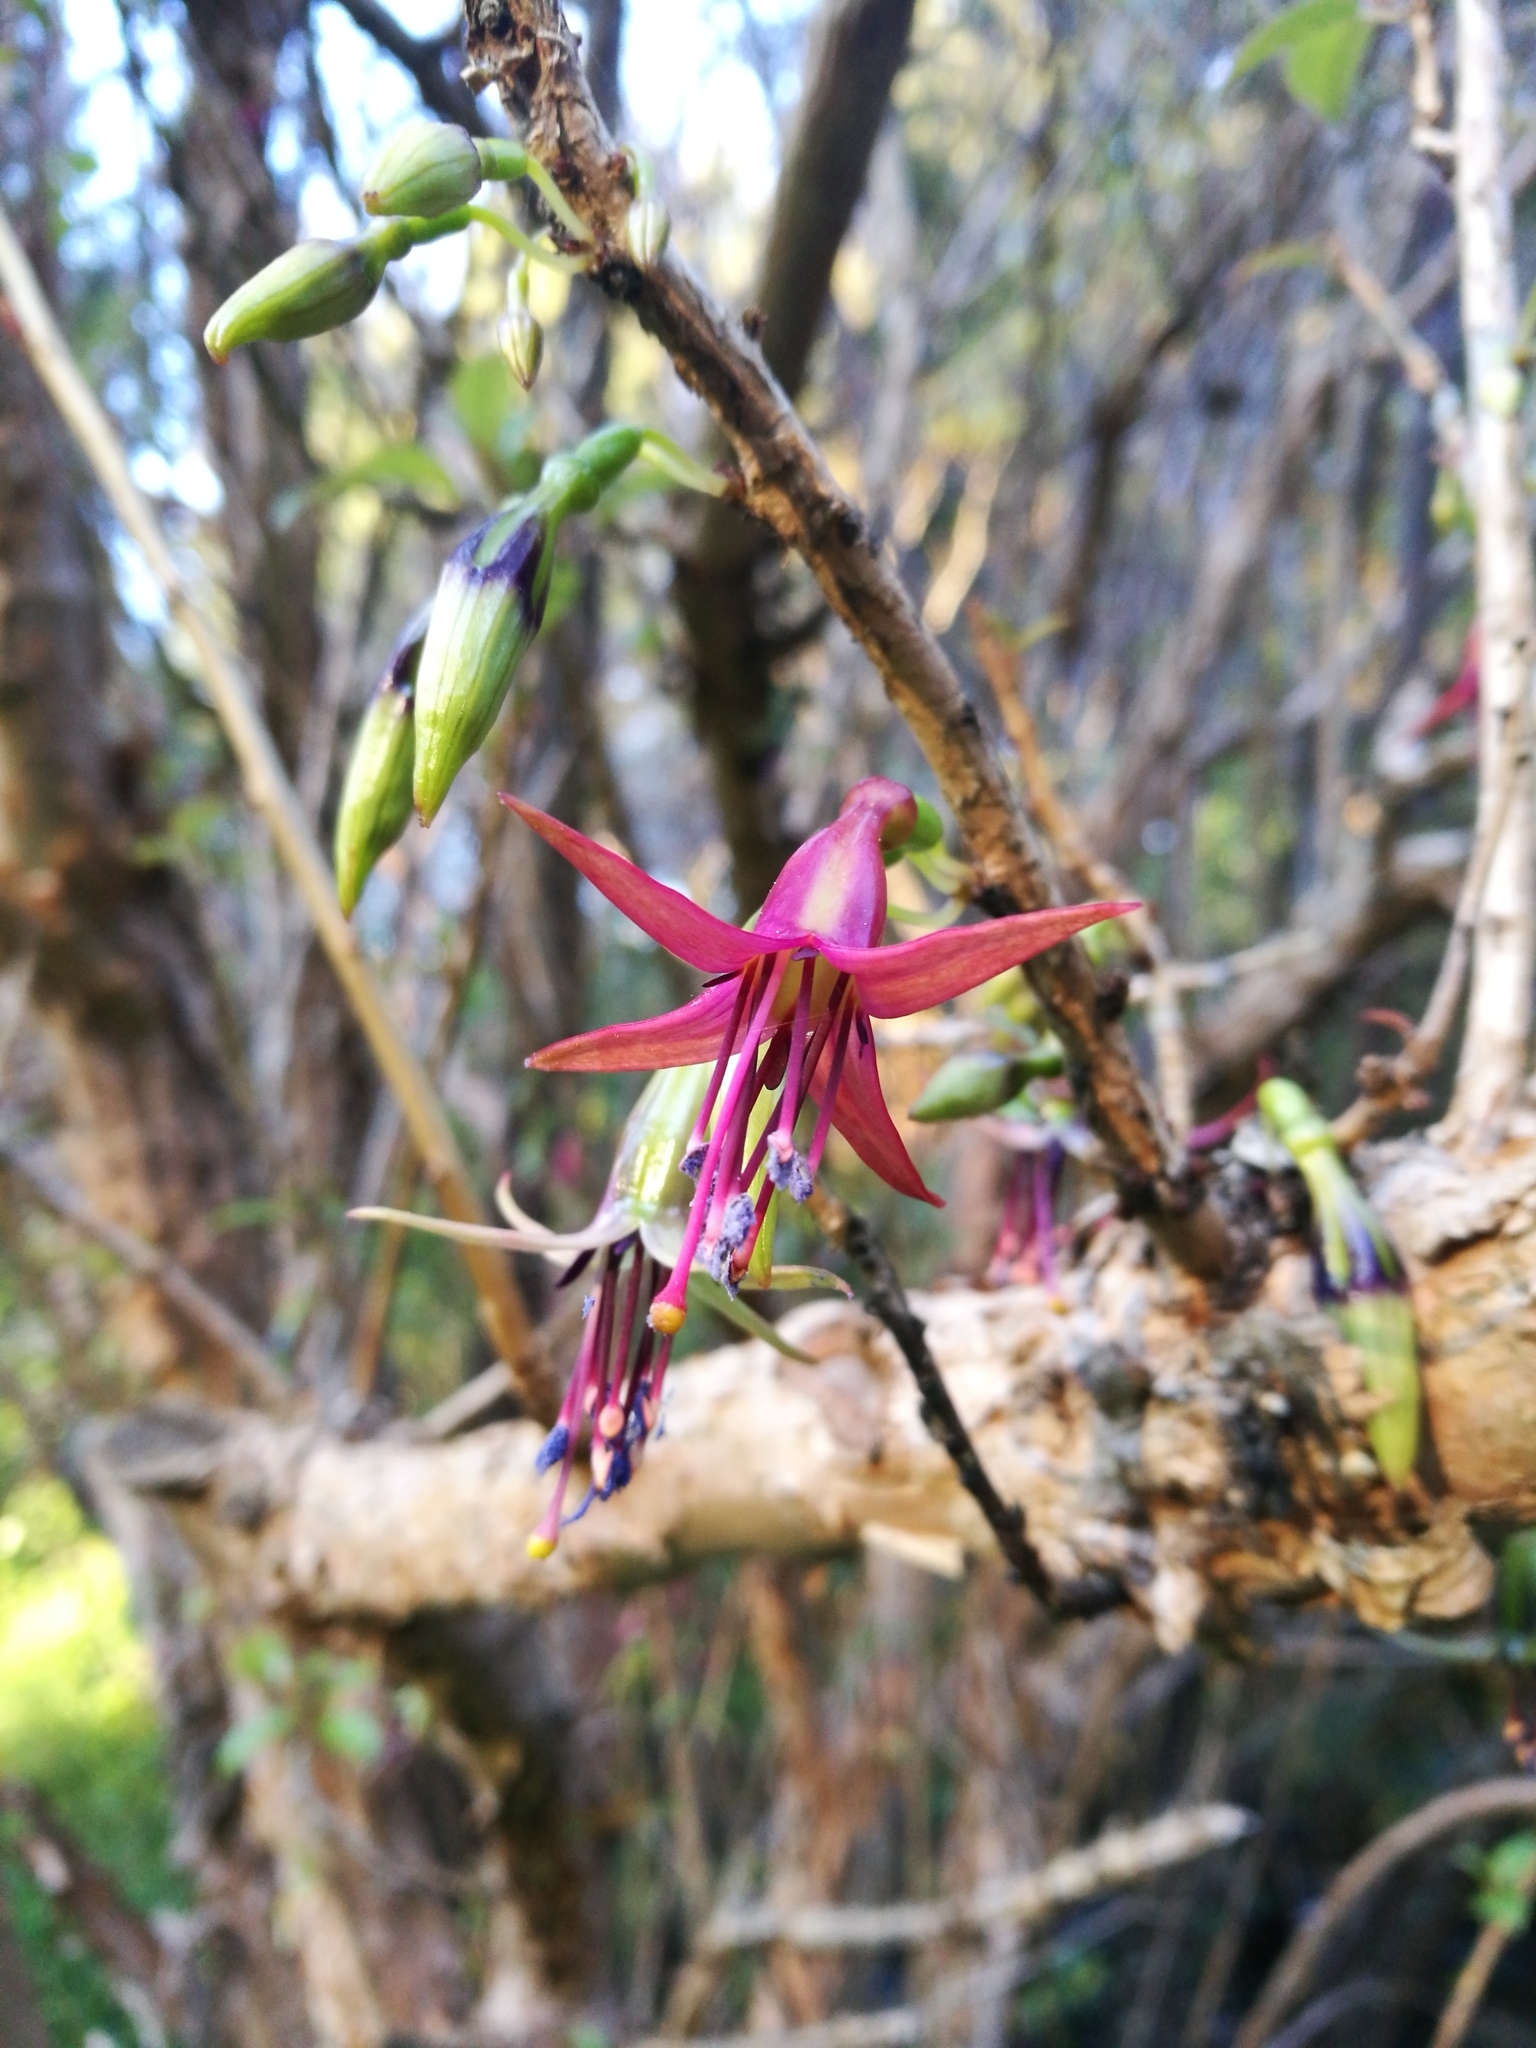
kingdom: Plantae
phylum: Tracheophyta
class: Magnoliopsida
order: Myrtales
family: Onagraceae
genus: Fuchsia
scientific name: Fuchsia excorticata
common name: Tree fuchsia
